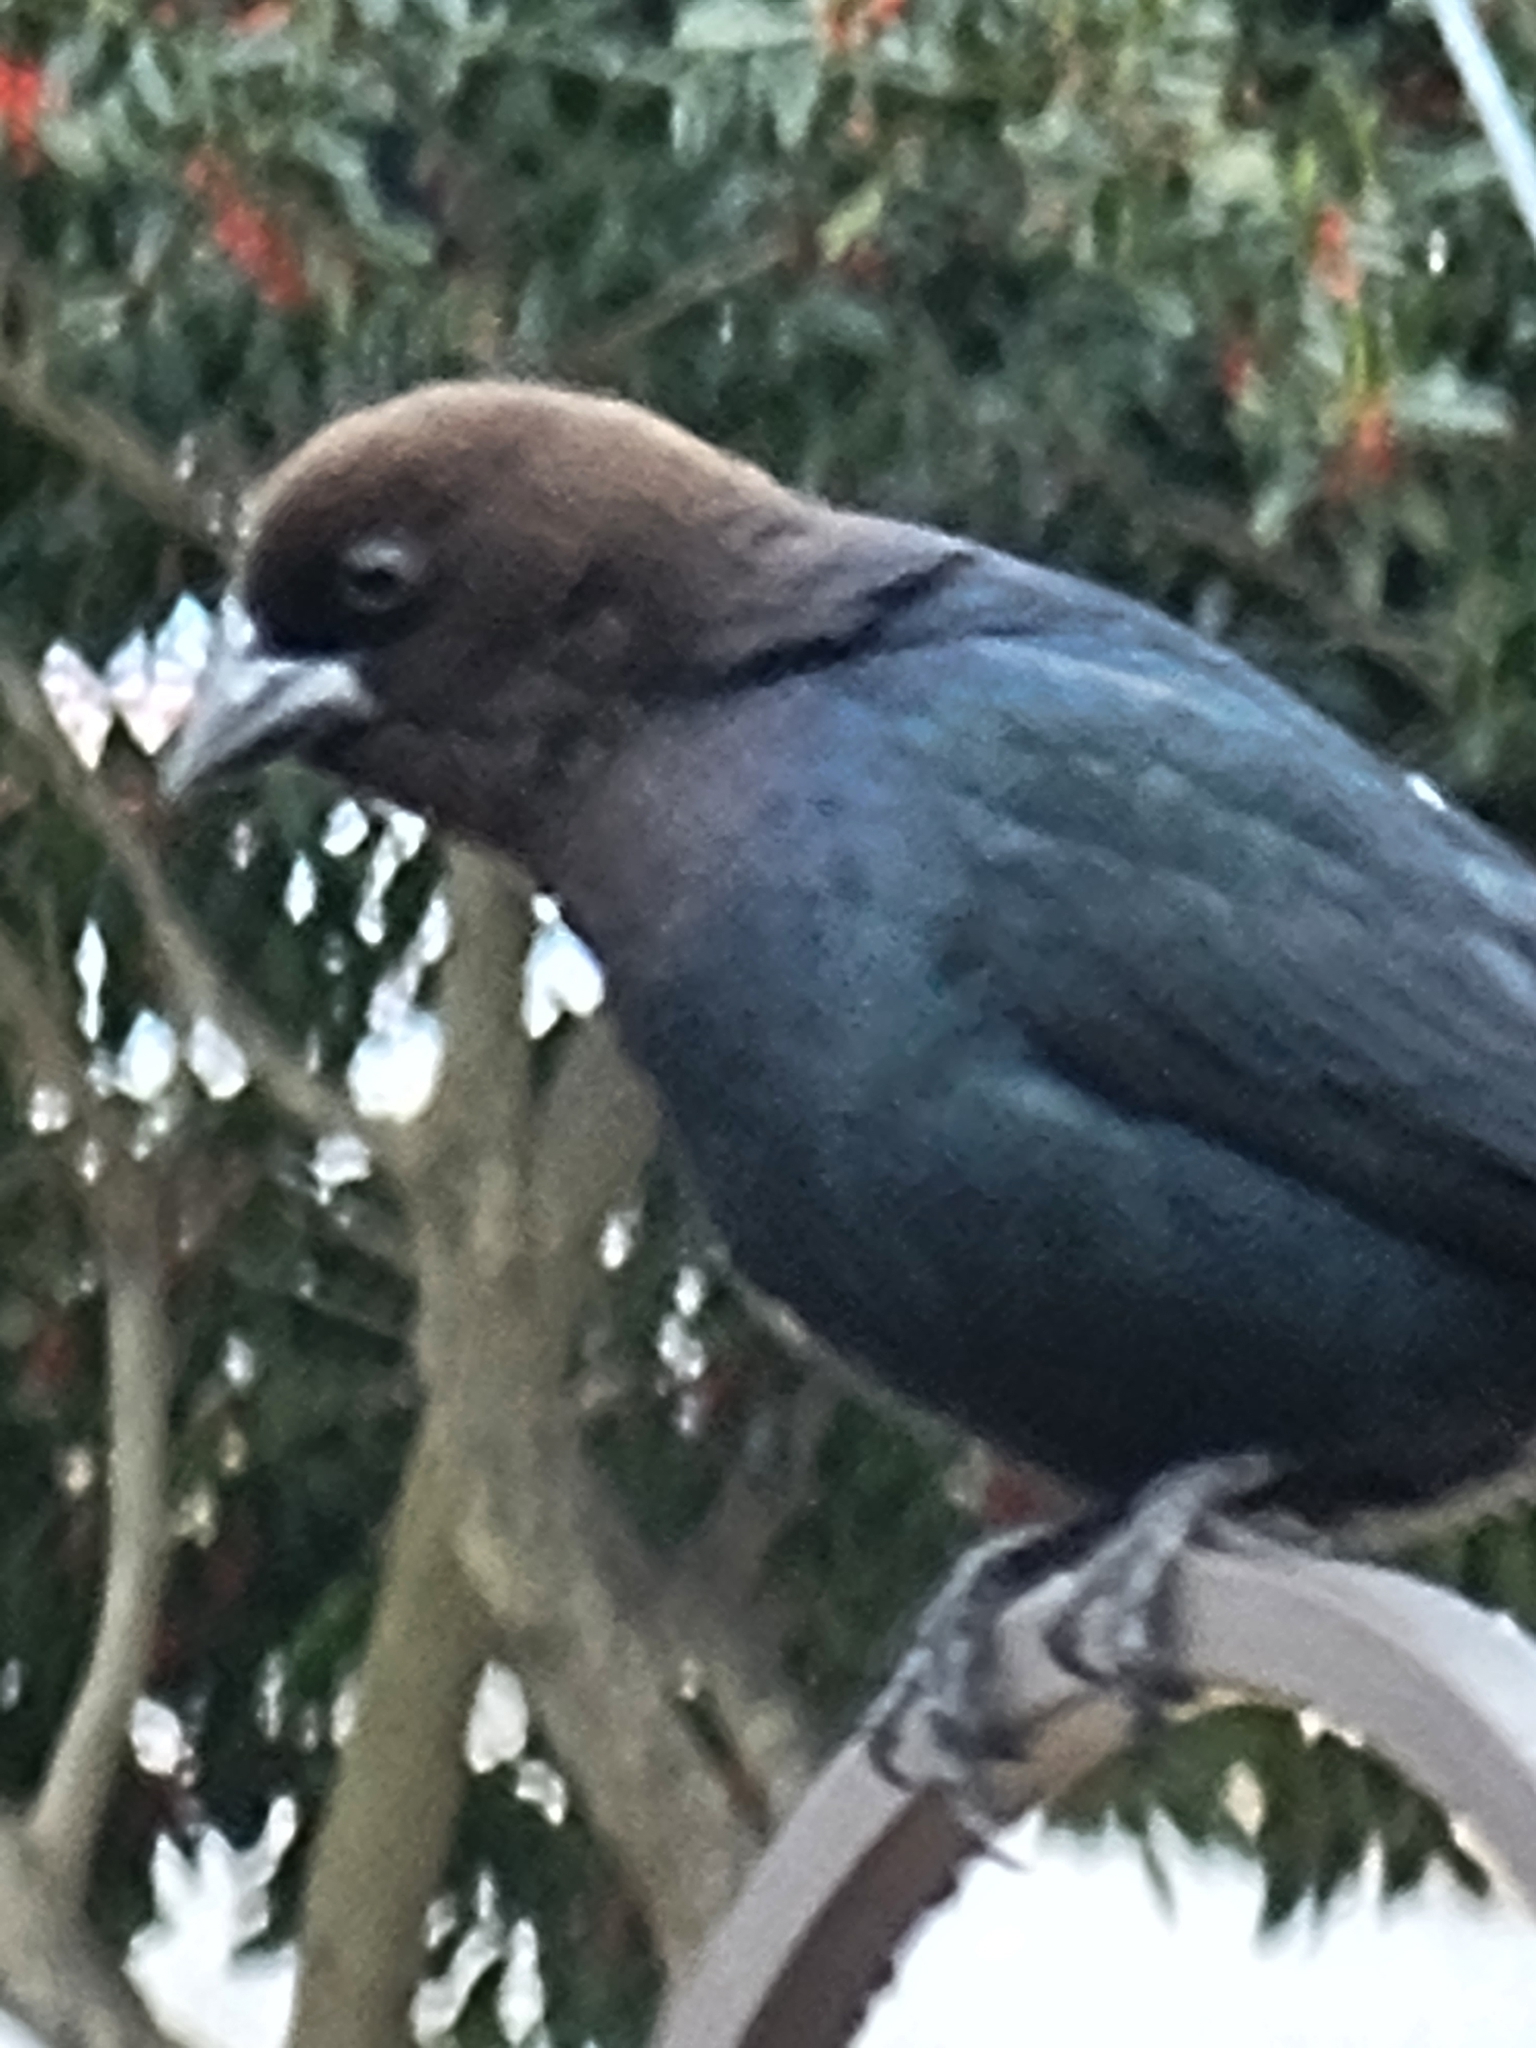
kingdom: Animalia
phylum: Chordata
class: Aves
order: Passeriformes
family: Icteridae
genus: Molothrus
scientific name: Molothrus ater
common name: Brown-headed cowbird
